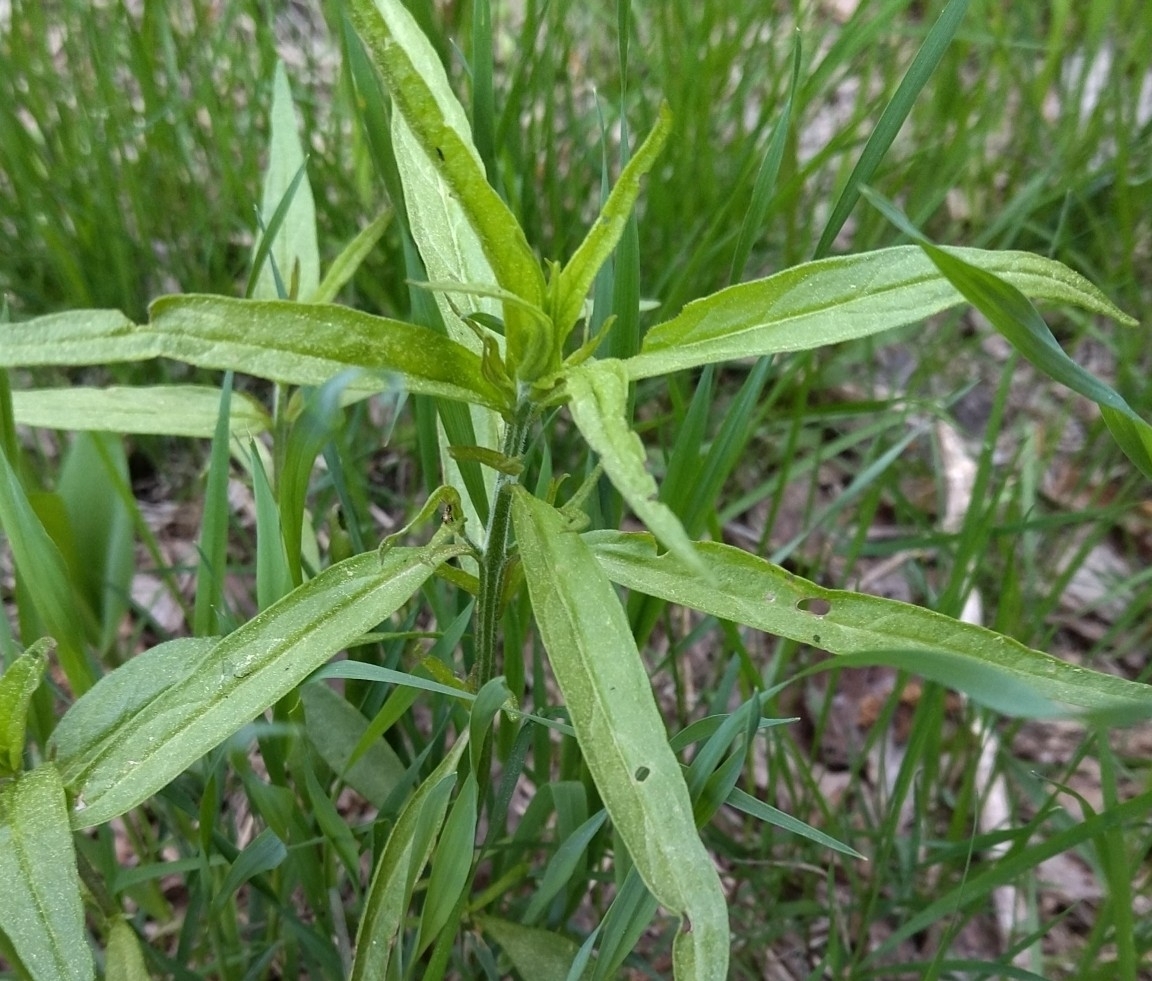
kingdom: Plantae
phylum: Tracheophyta
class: Magnoliopsida
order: Lamiales
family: Orobanchaceae
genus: Melampyrum
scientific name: Melampyrum nemorosum
